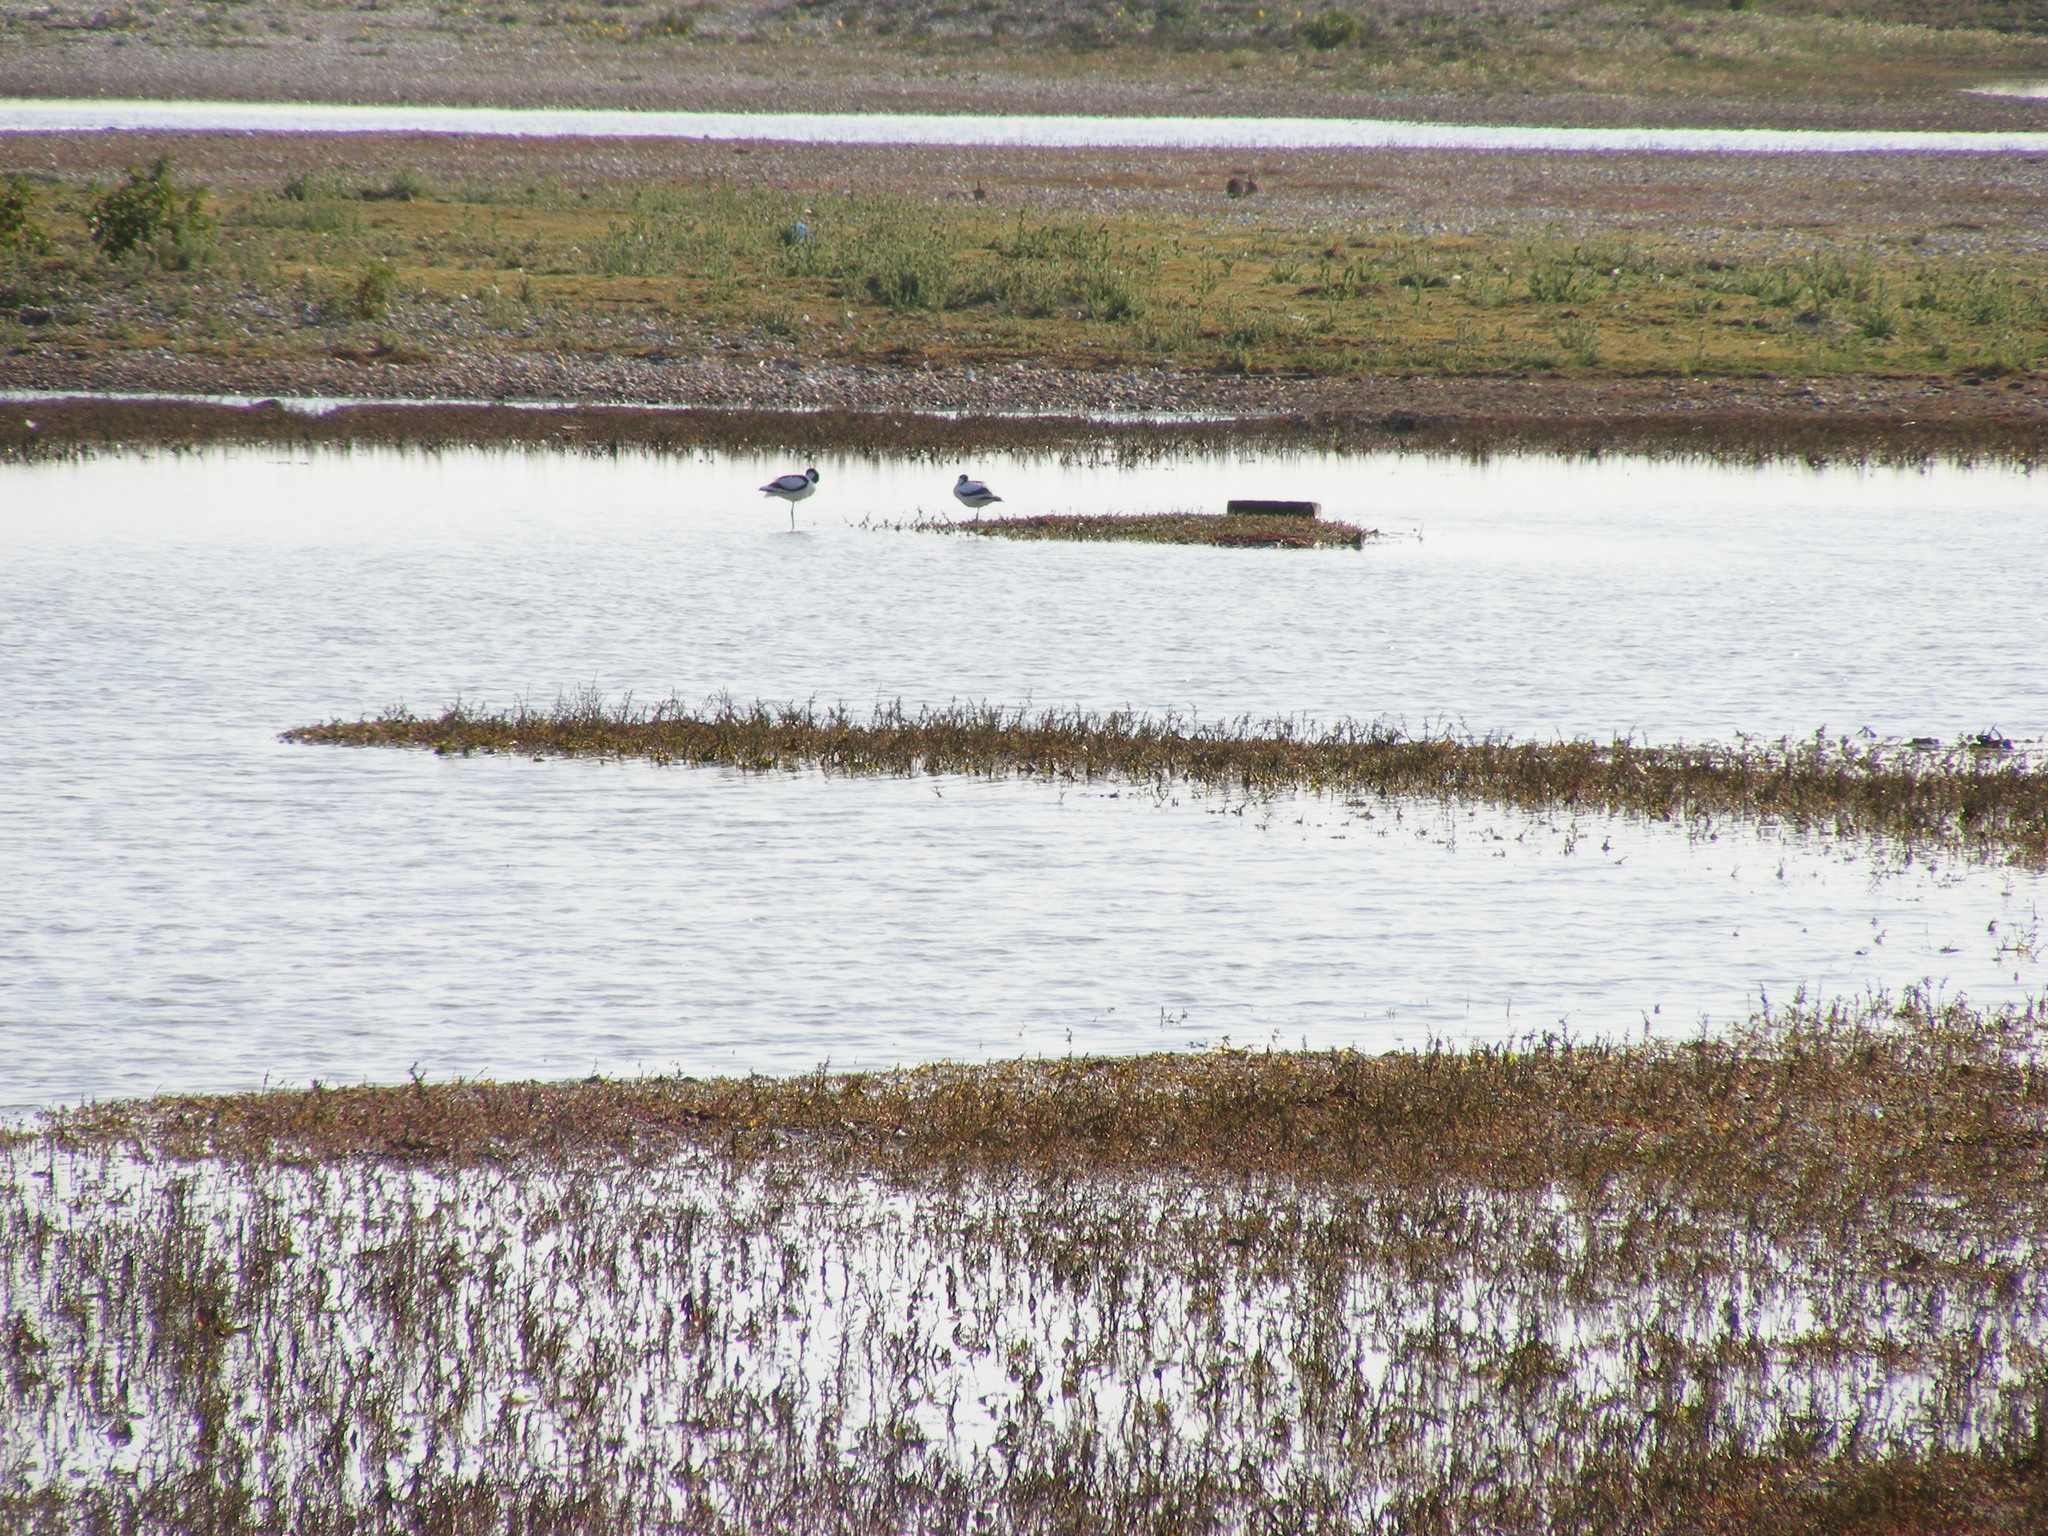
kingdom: Animalia
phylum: Chordata
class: Aves
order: Charadriiformes
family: Recurvirostridae
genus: Recurvirostra
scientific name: Recurvirostra avosetta
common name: Pied avocet
